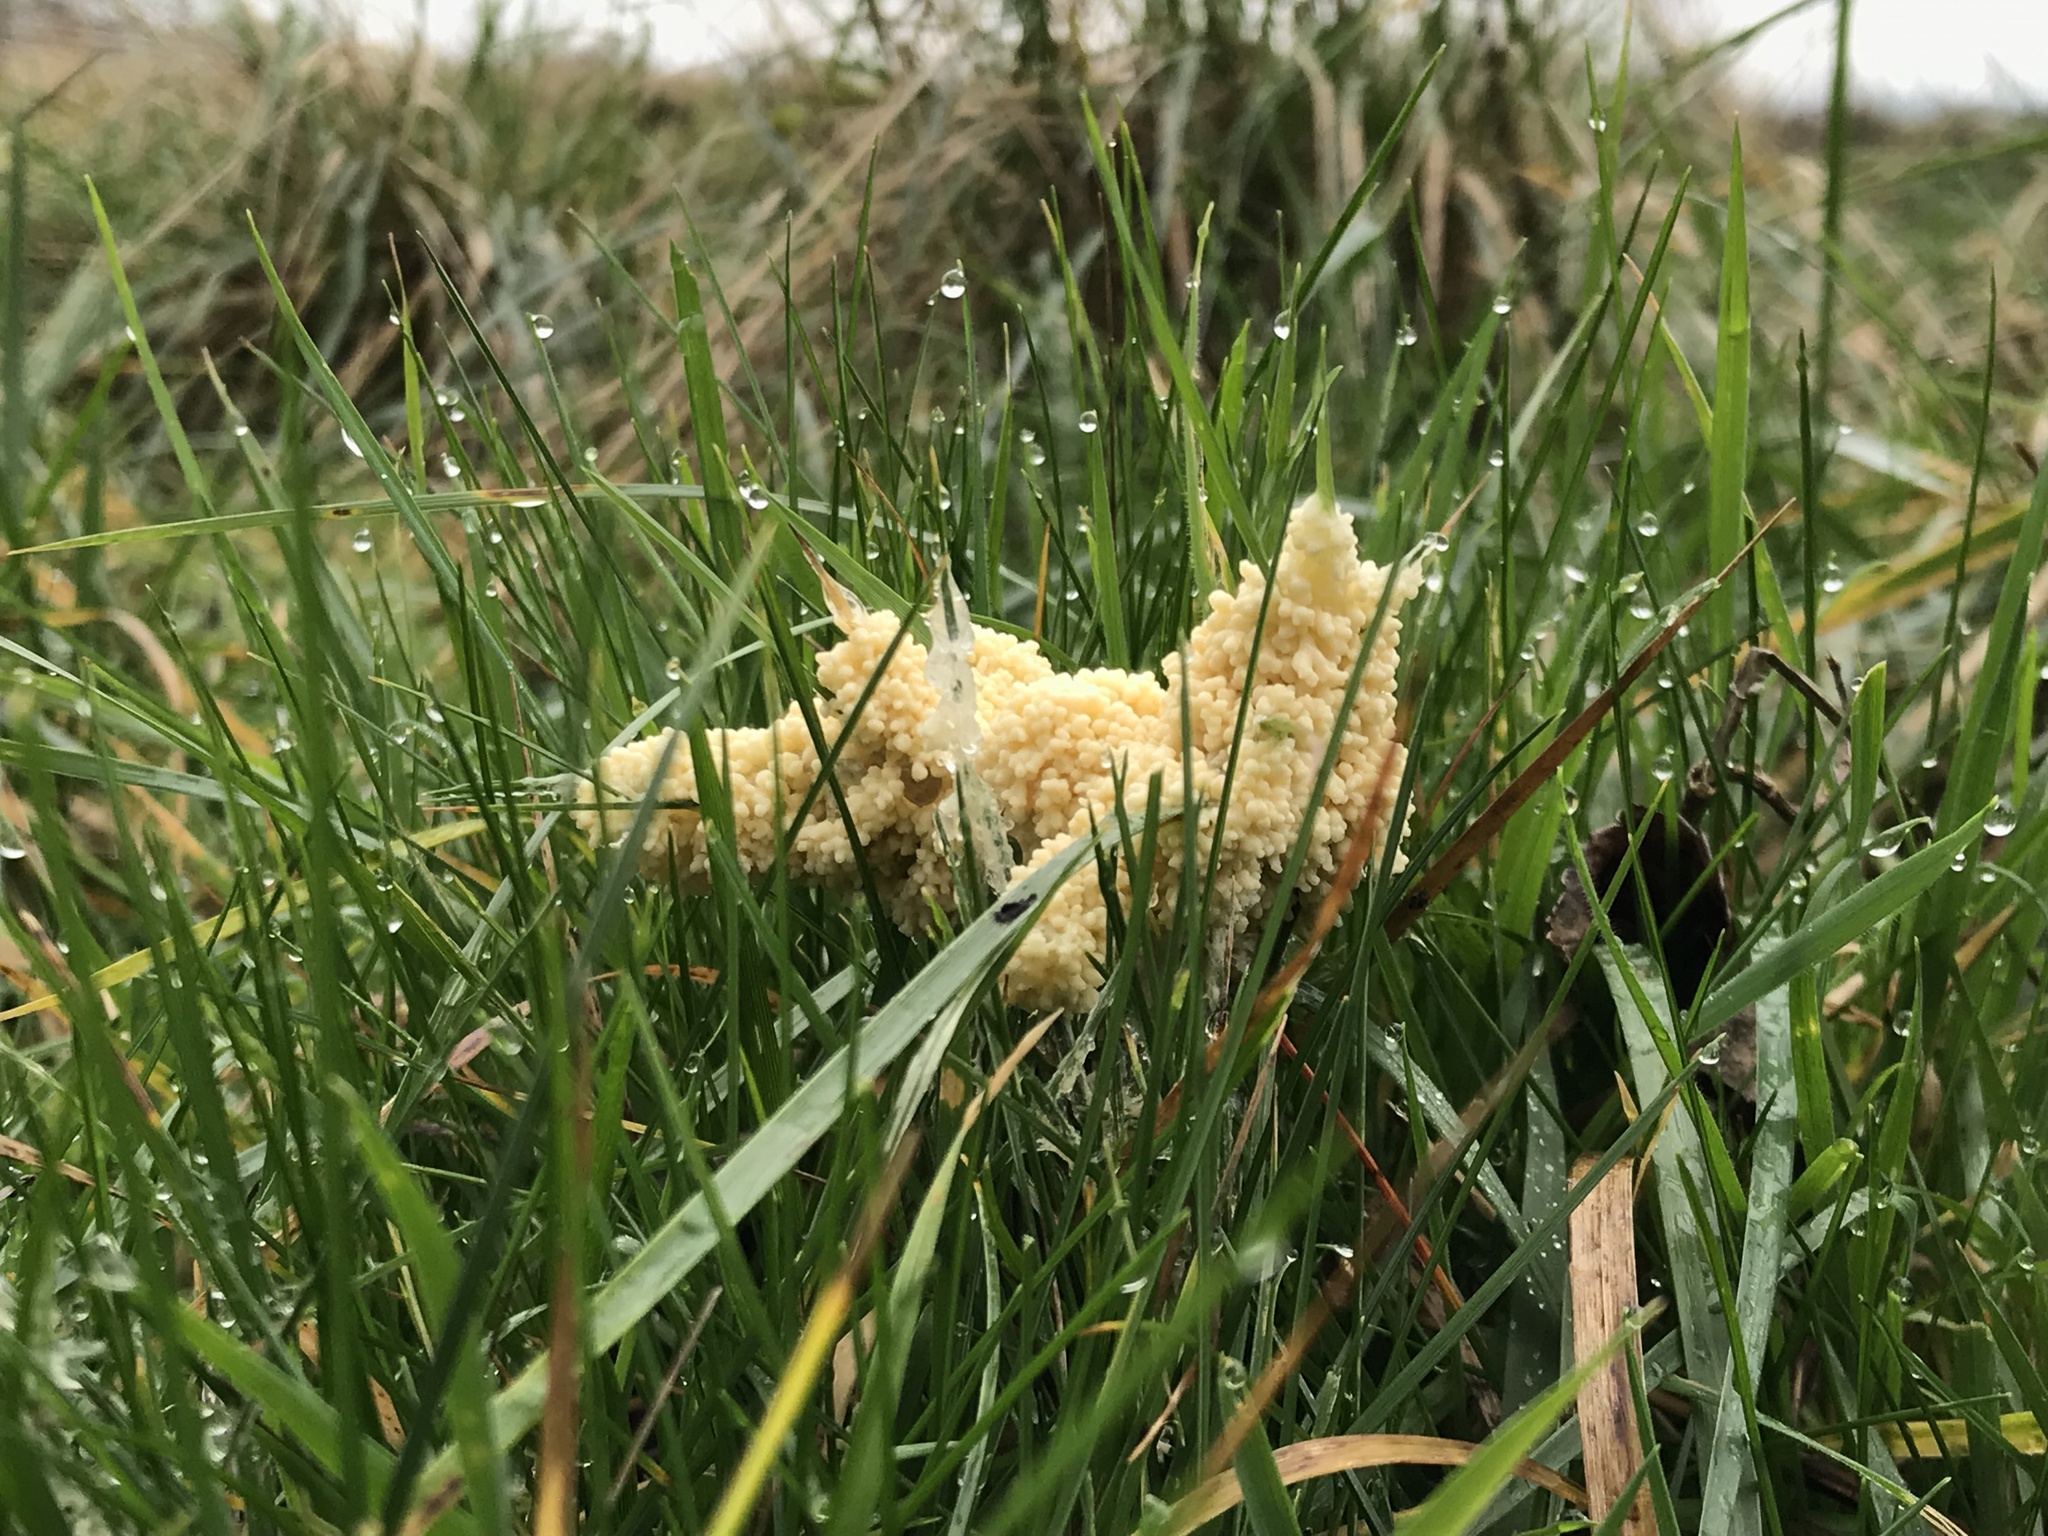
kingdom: Protozoa
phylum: Mycetozoa
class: Myxomycetes
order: Physarales
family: Physaraceae
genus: Didymium
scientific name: Didymium
